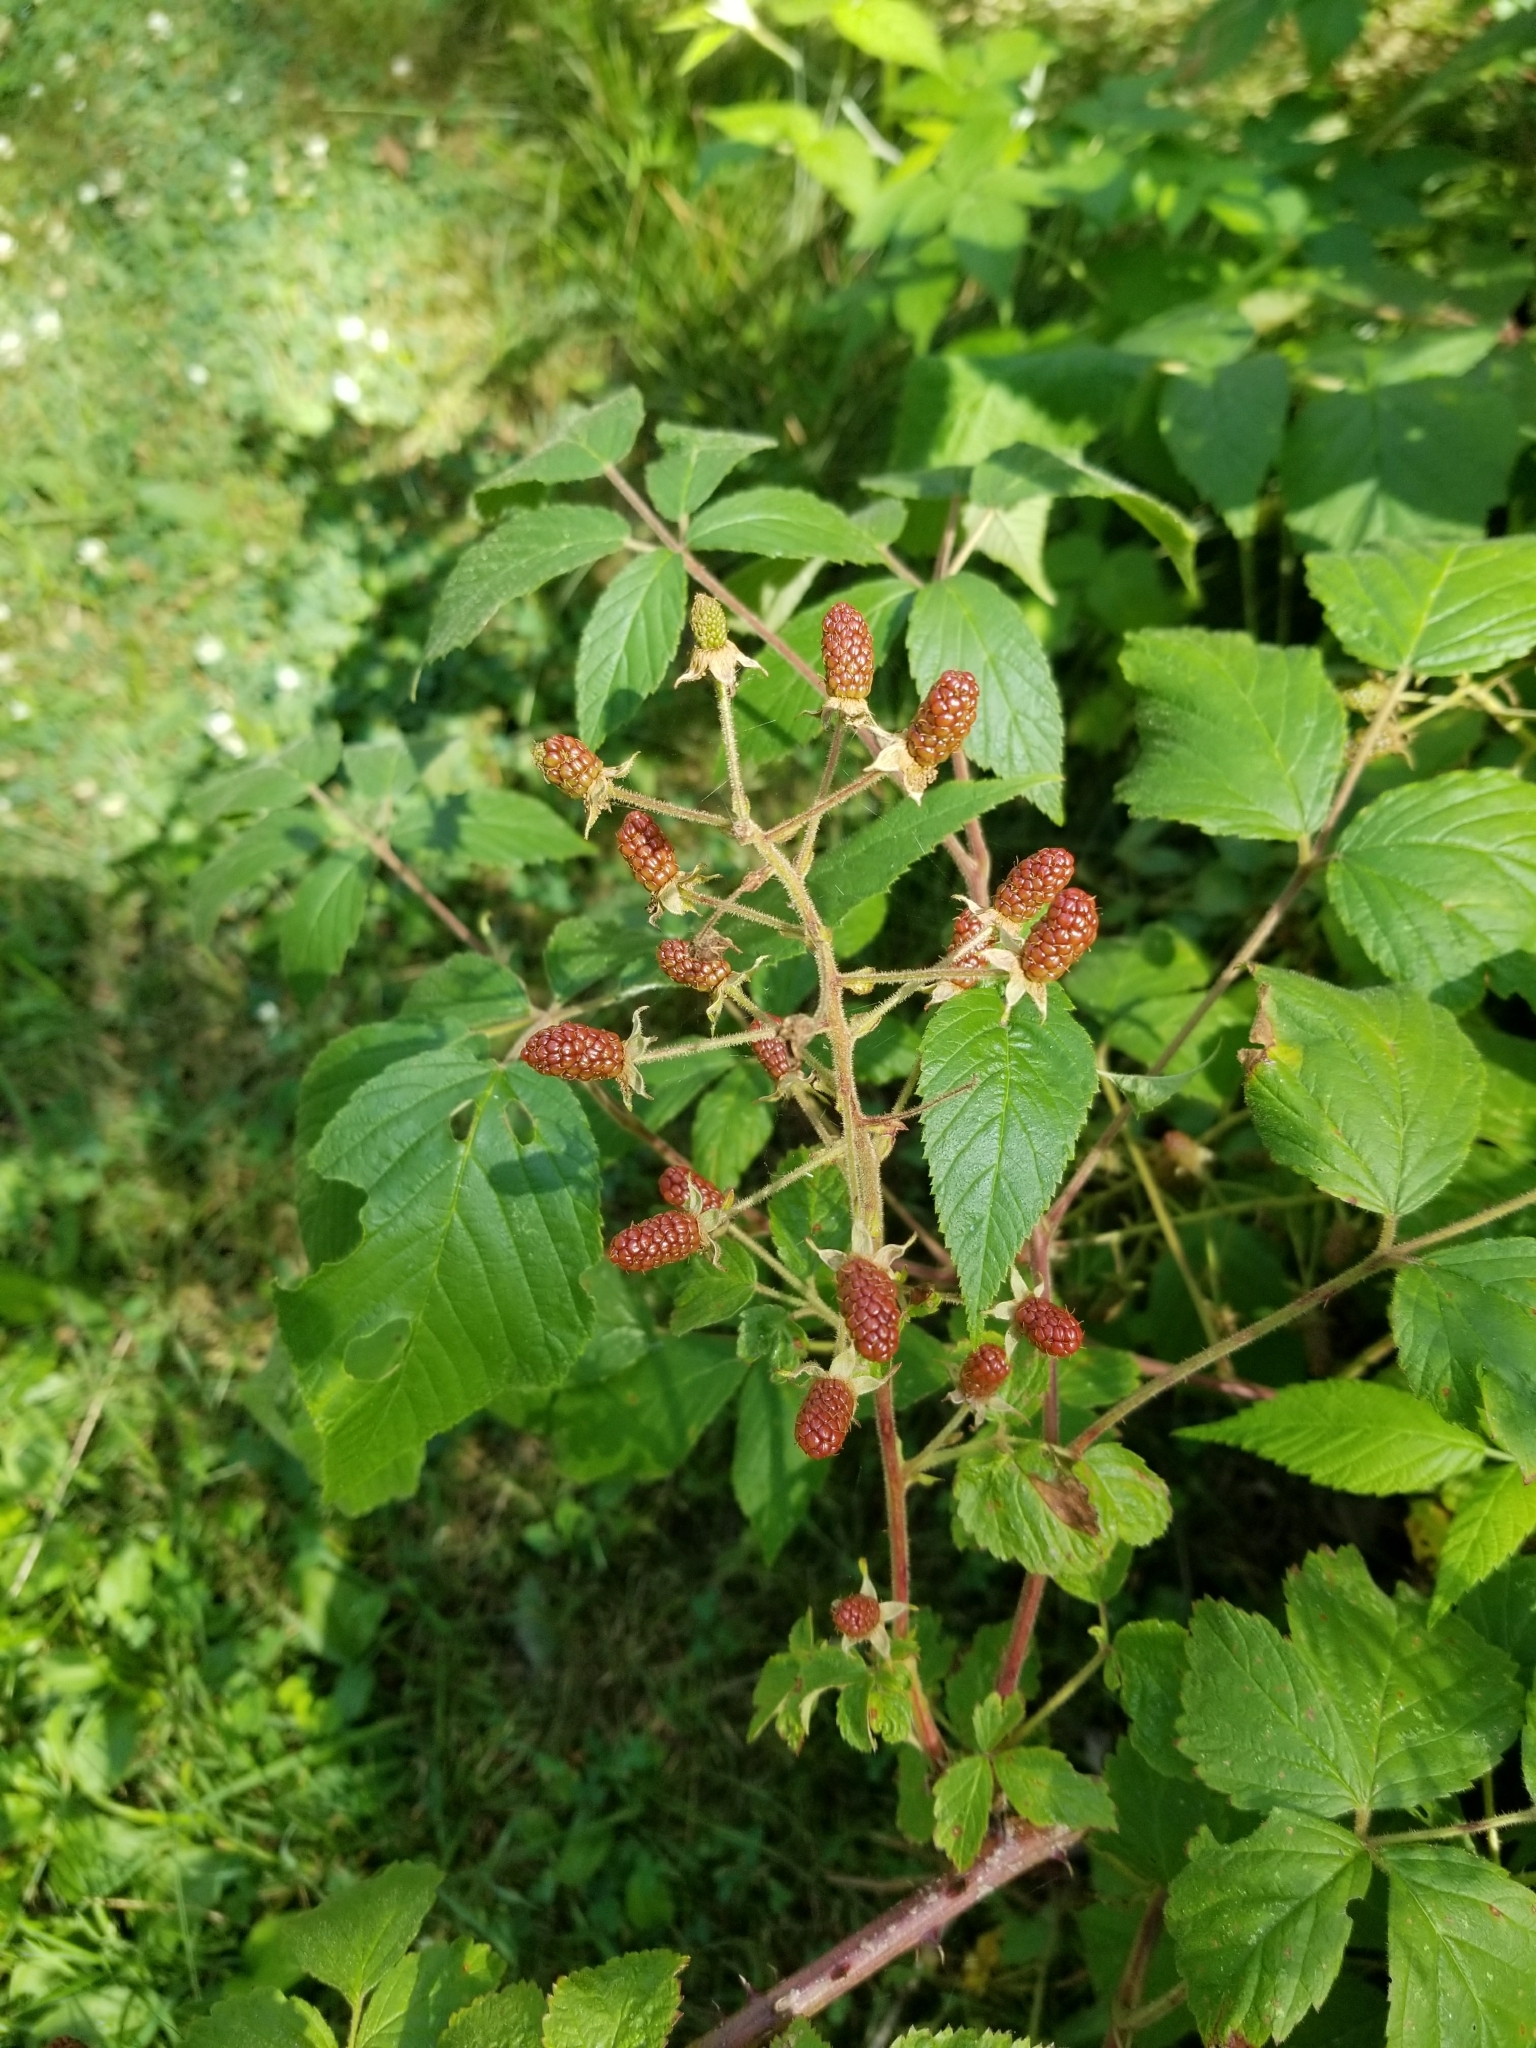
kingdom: Plantae
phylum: Tracheophyta
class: Magnoliopsida
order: Rosales
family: Rosaceae
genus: Rubus
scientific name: Rubus allegheniensis
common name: Allegheny blackberry
